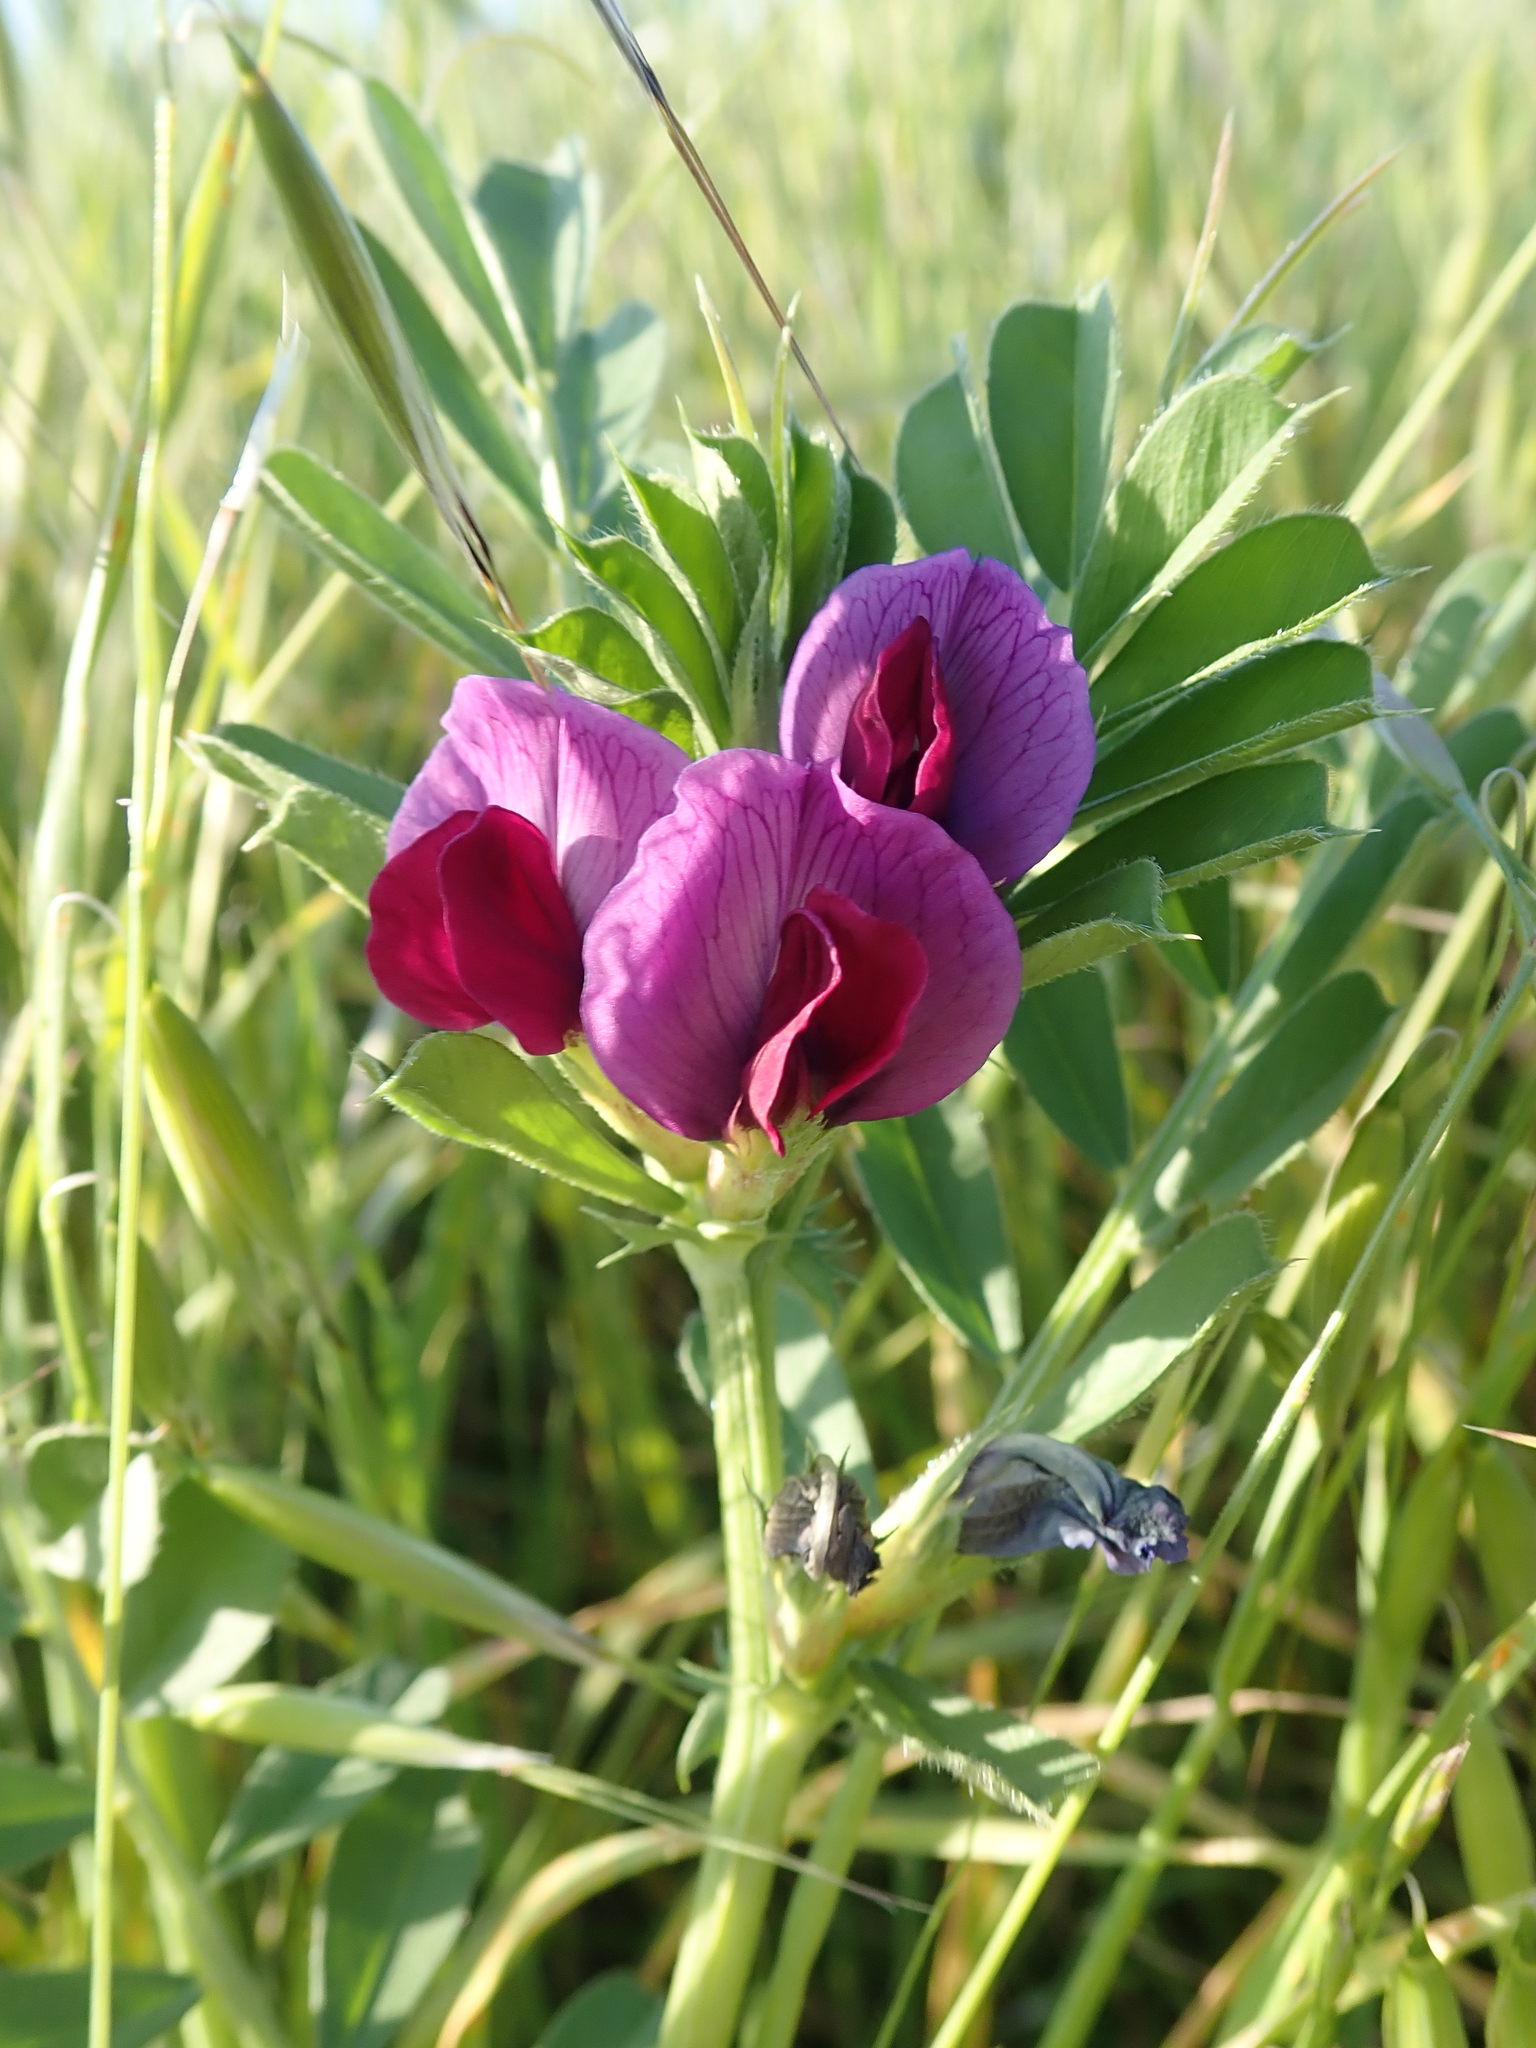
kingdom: Plantae
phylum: Tracheophyta
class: Magnoliopsida
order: Fabales
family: Fabaceae
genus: Vicia
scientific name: Vicia sativa
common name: Garden vetch
